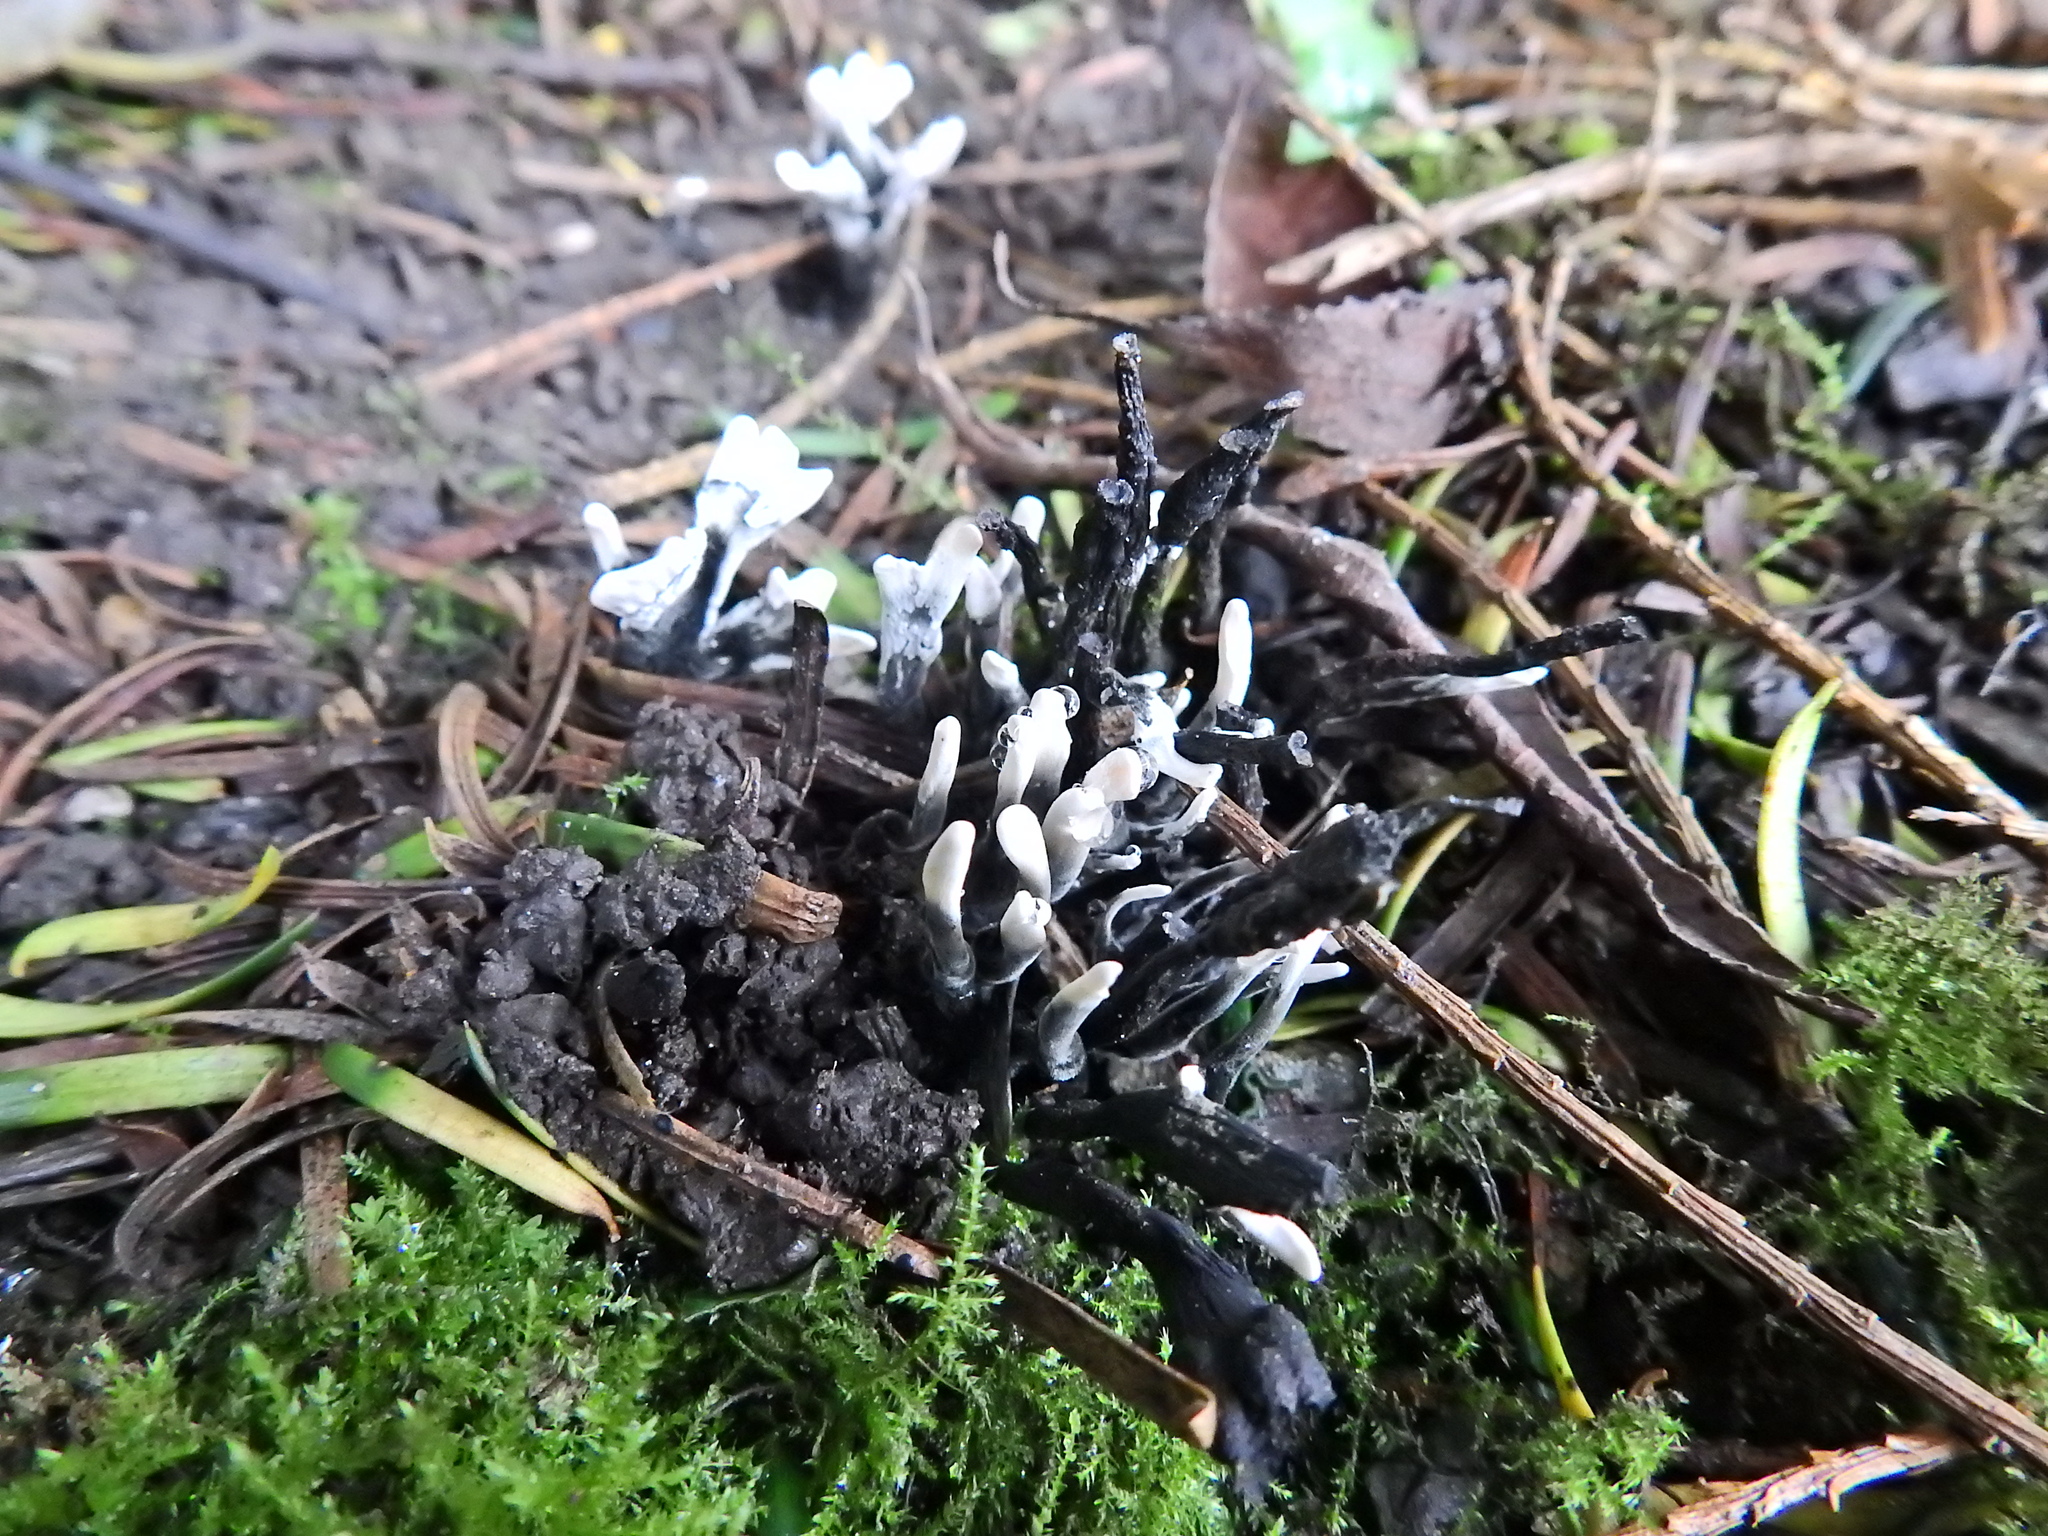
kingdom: Fungi
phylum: Ascomycota
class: Sordariomycetes
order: Xylariales
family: Xylariaceae
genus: Xylaria
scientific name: Xylaria hypoxylon
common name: Candle-snuff fungus
